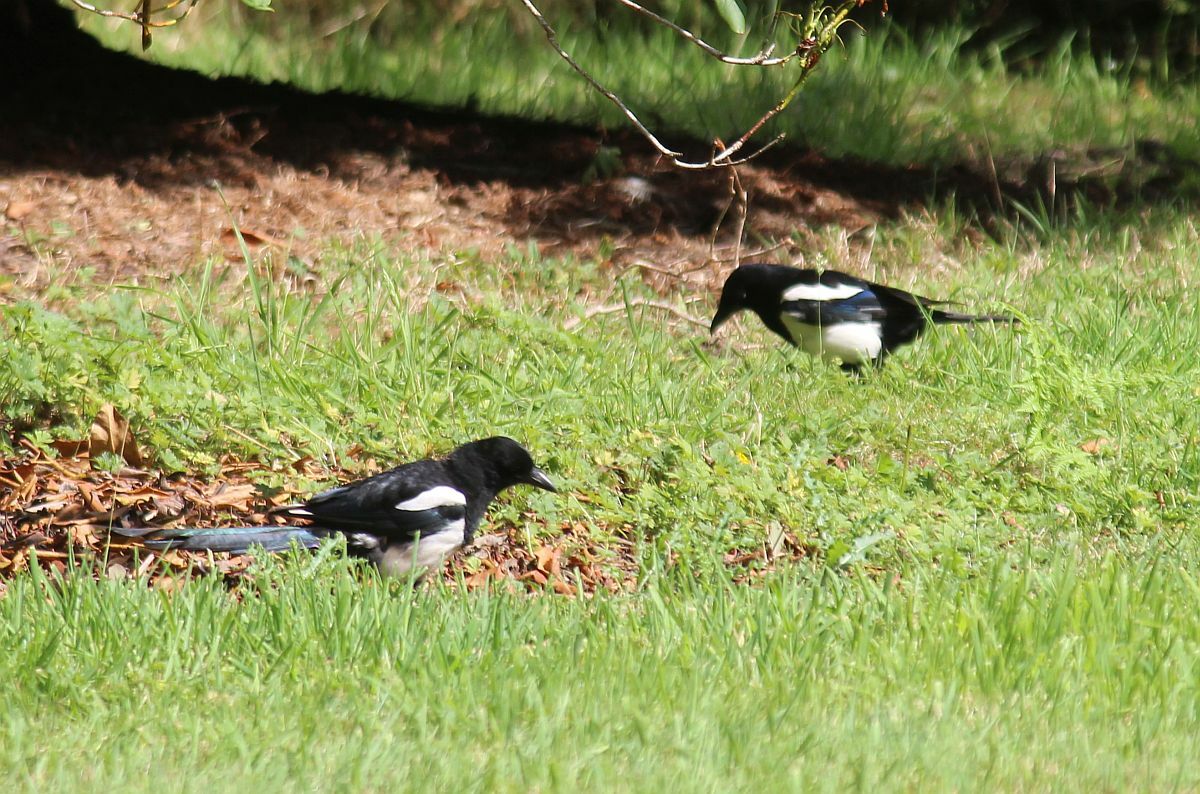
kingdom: Animalia
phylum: Chordata
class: Aves
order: Passeriformes
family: Corvidae
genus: Pica
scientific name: Pica pica
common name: Eurasian magpie
